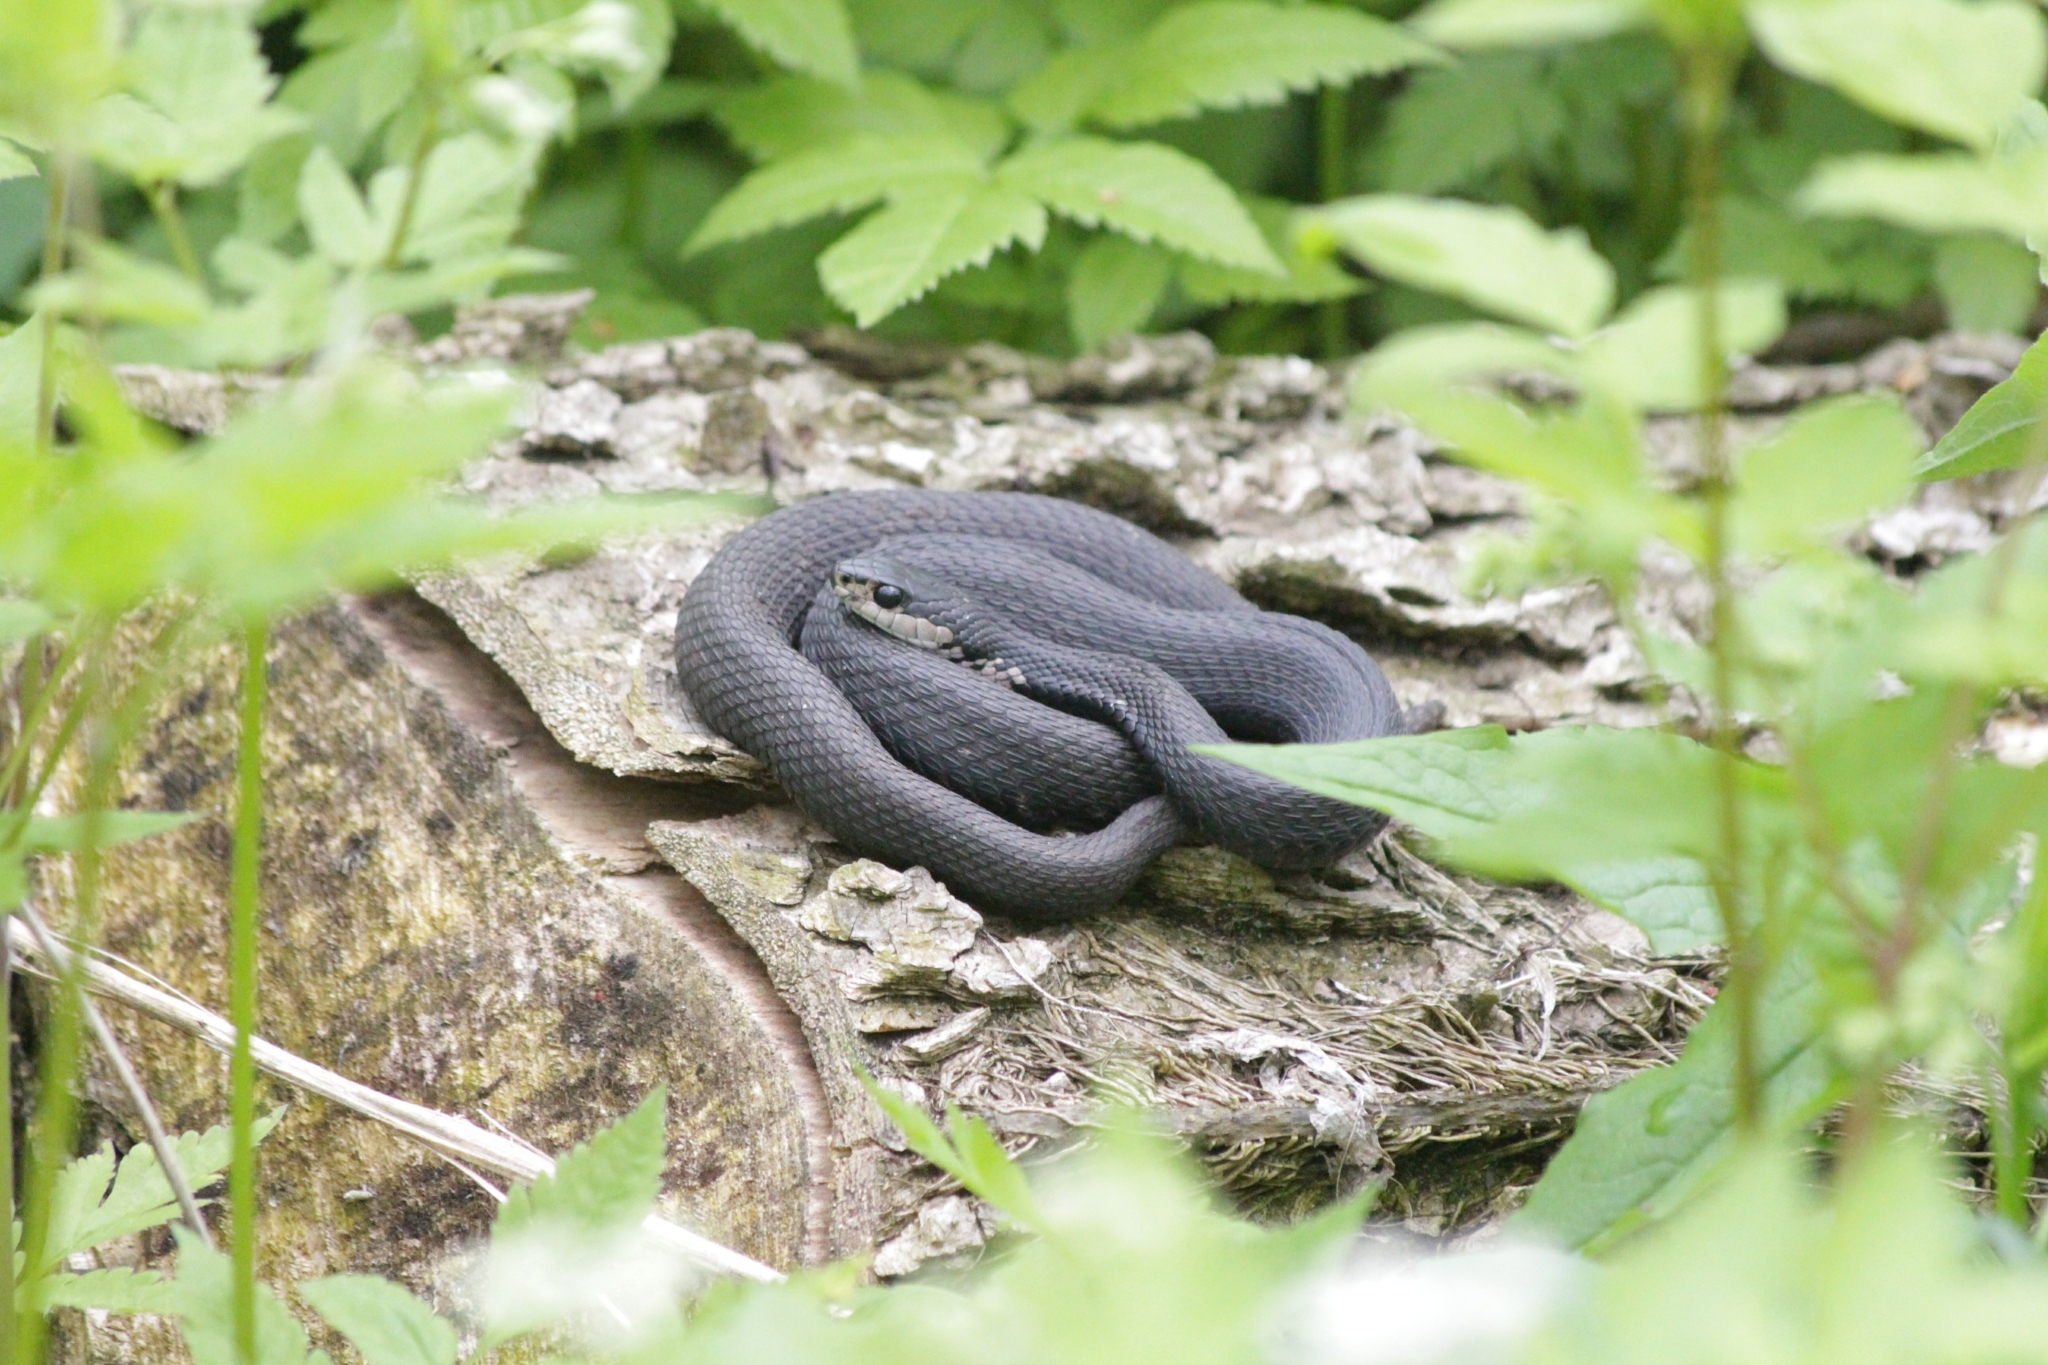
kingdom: Animalia
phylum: Chordata
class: Squamata
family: Colubridae
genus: Thamnophis
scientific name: Thamnophis sirtalis
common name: Common garter snake
